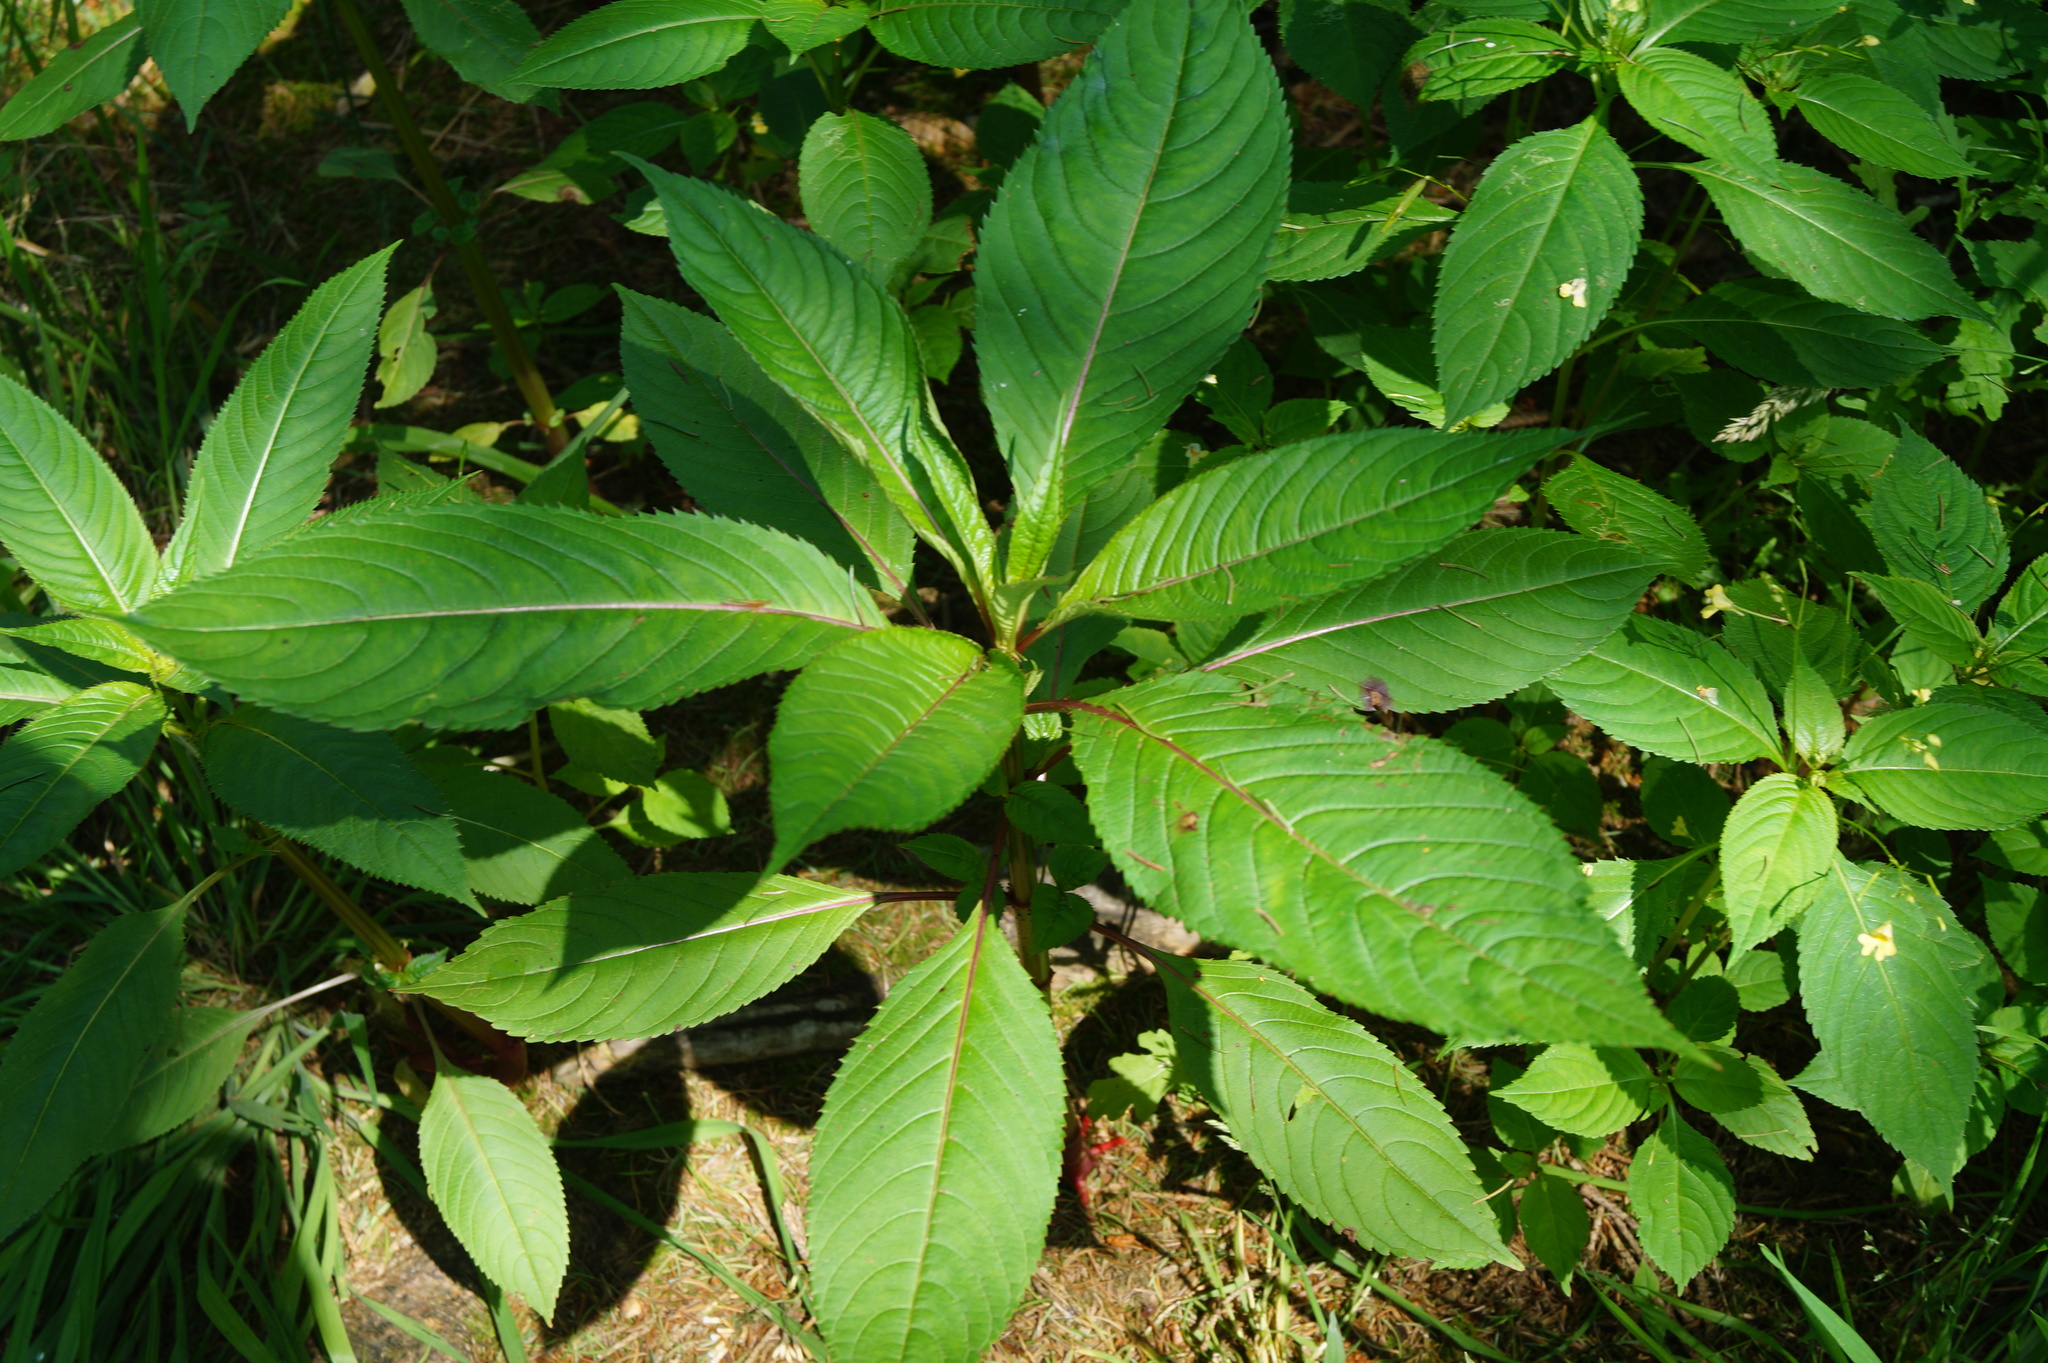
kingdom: Plantae
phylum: Tracheophyta
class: Magnoliopsida
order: Ericales
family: Balsaminaceae
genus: Impatiens
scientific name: Impatiens glandulifera
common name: Himalayan balsam
